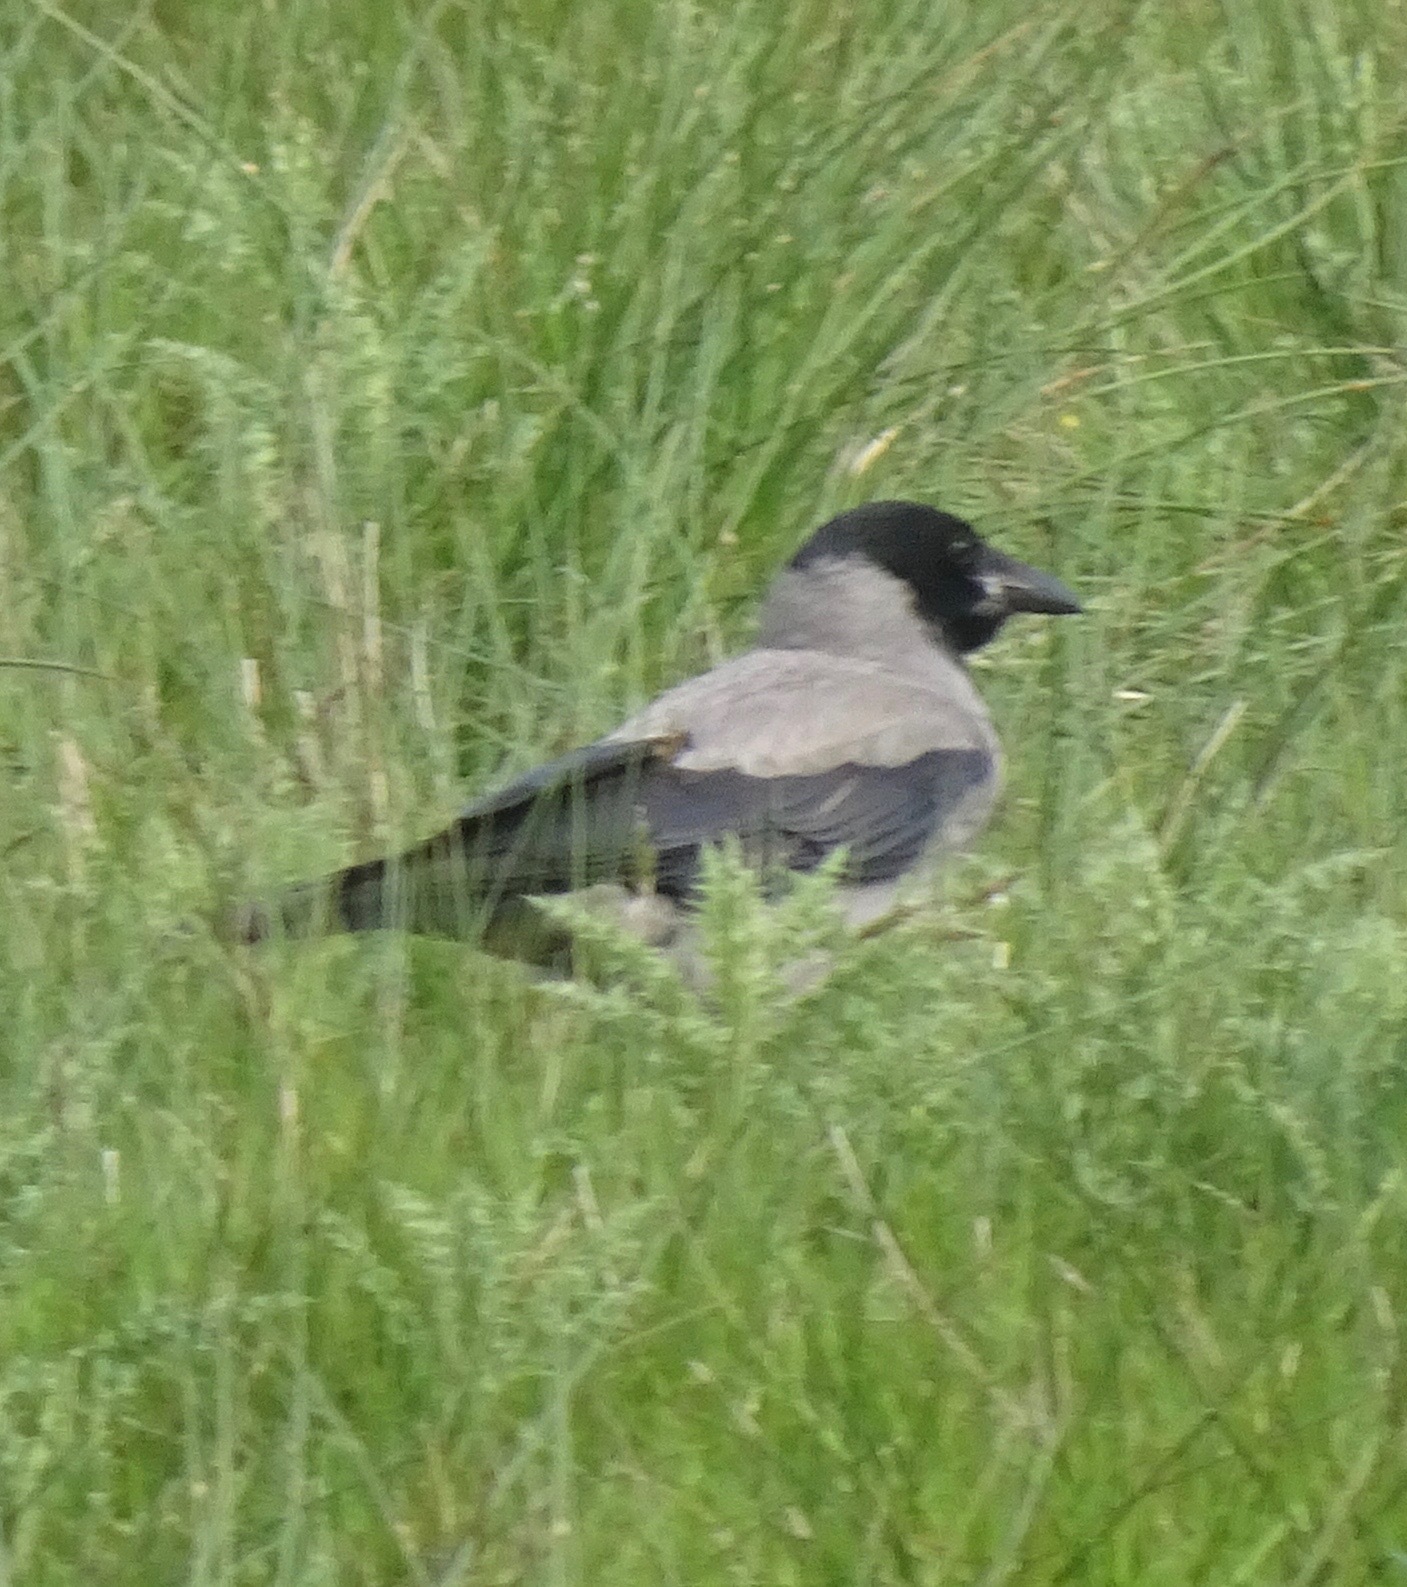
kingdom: Animalia
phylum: Chordata
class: Aves
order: Passeriformes
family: Corvidae
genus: Corvus
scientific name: Corvus cornix
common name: Hooded crow
